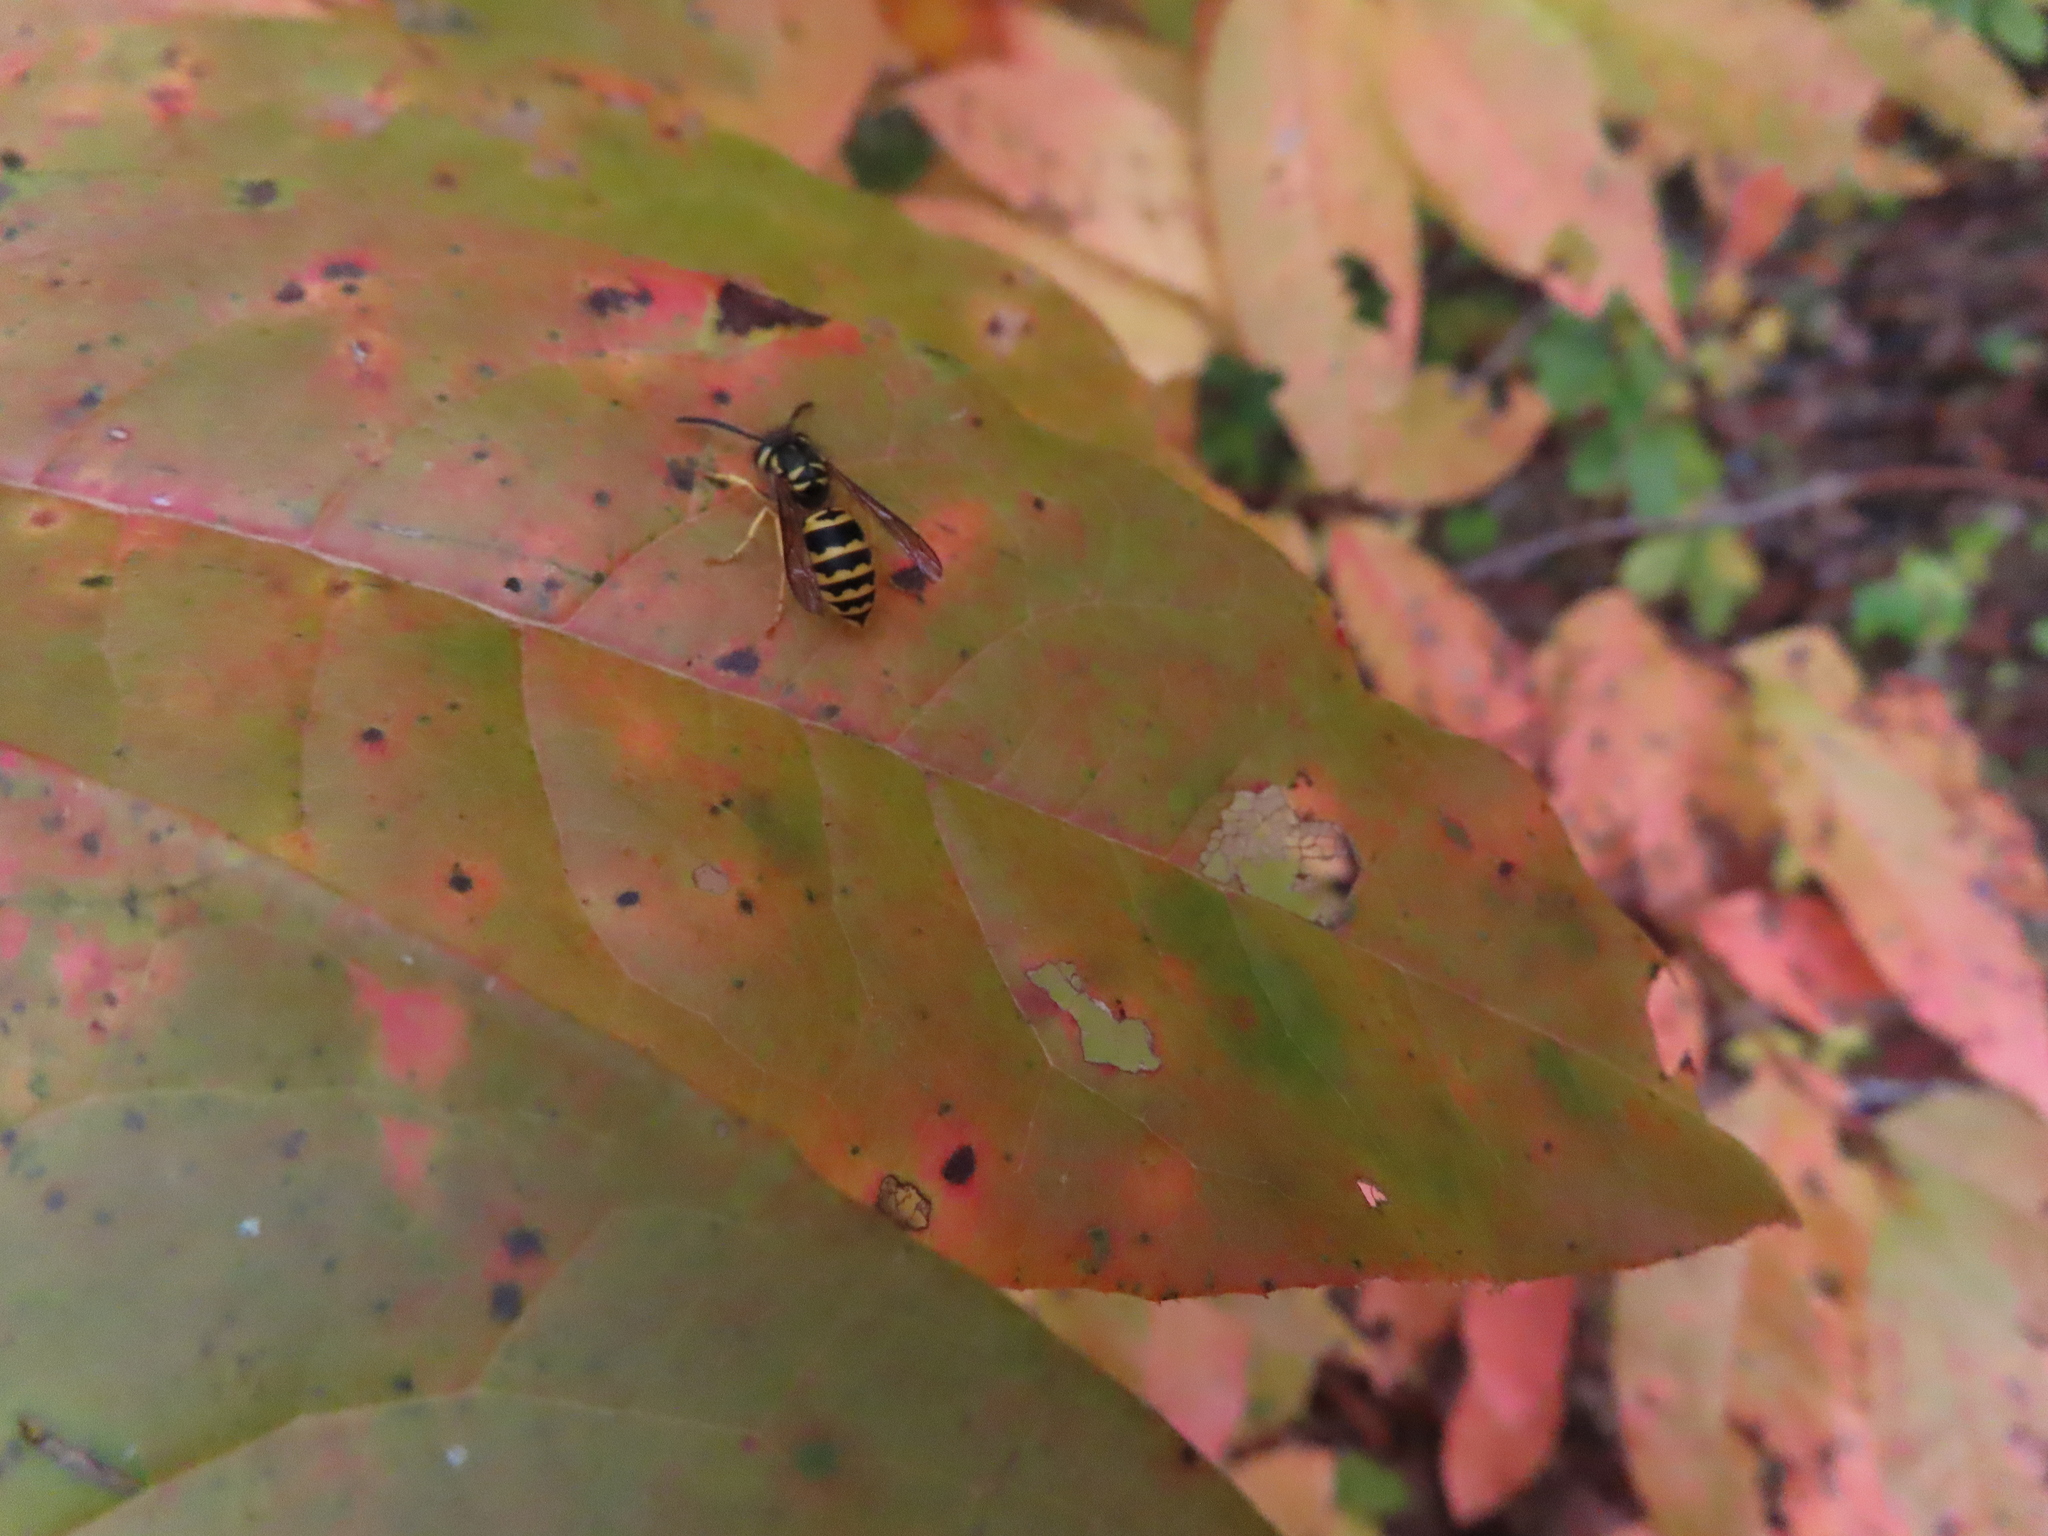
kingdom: Animalia
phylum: Arthropoda
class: Insecta
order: Hymenoptera
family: Vespidae
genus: Vespula
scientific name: Vespula maculifrons
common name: Eastern yellowjacket
